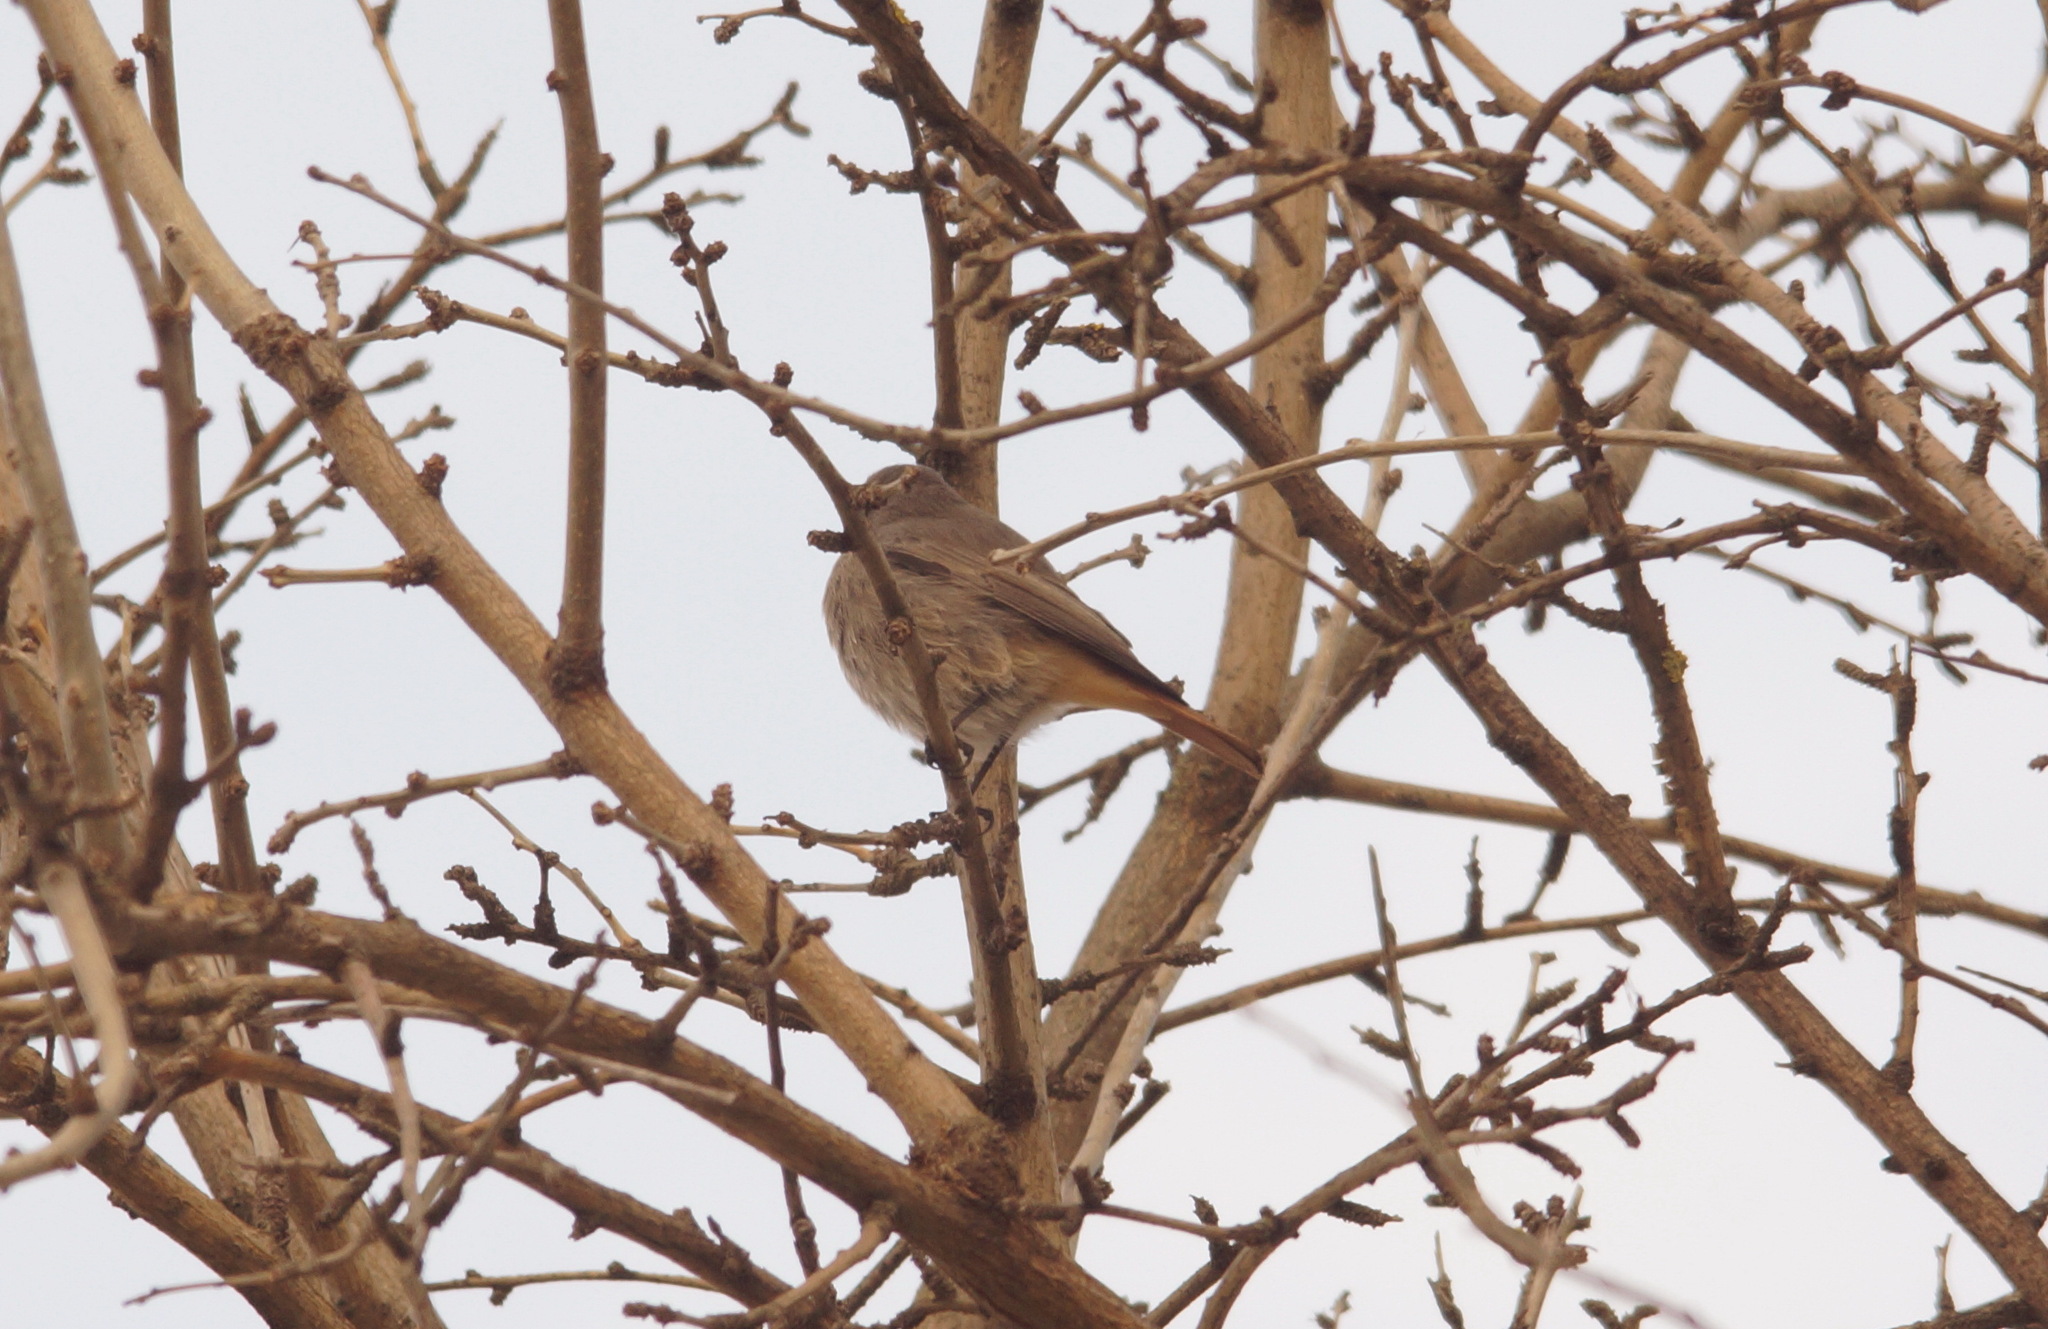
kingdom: Animalia
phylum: Chordata
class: Aves
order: Passeriformes
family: Muscicapidae
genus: Phoenicurus
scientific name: Phoenicurus ochruros
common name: Black redstart
